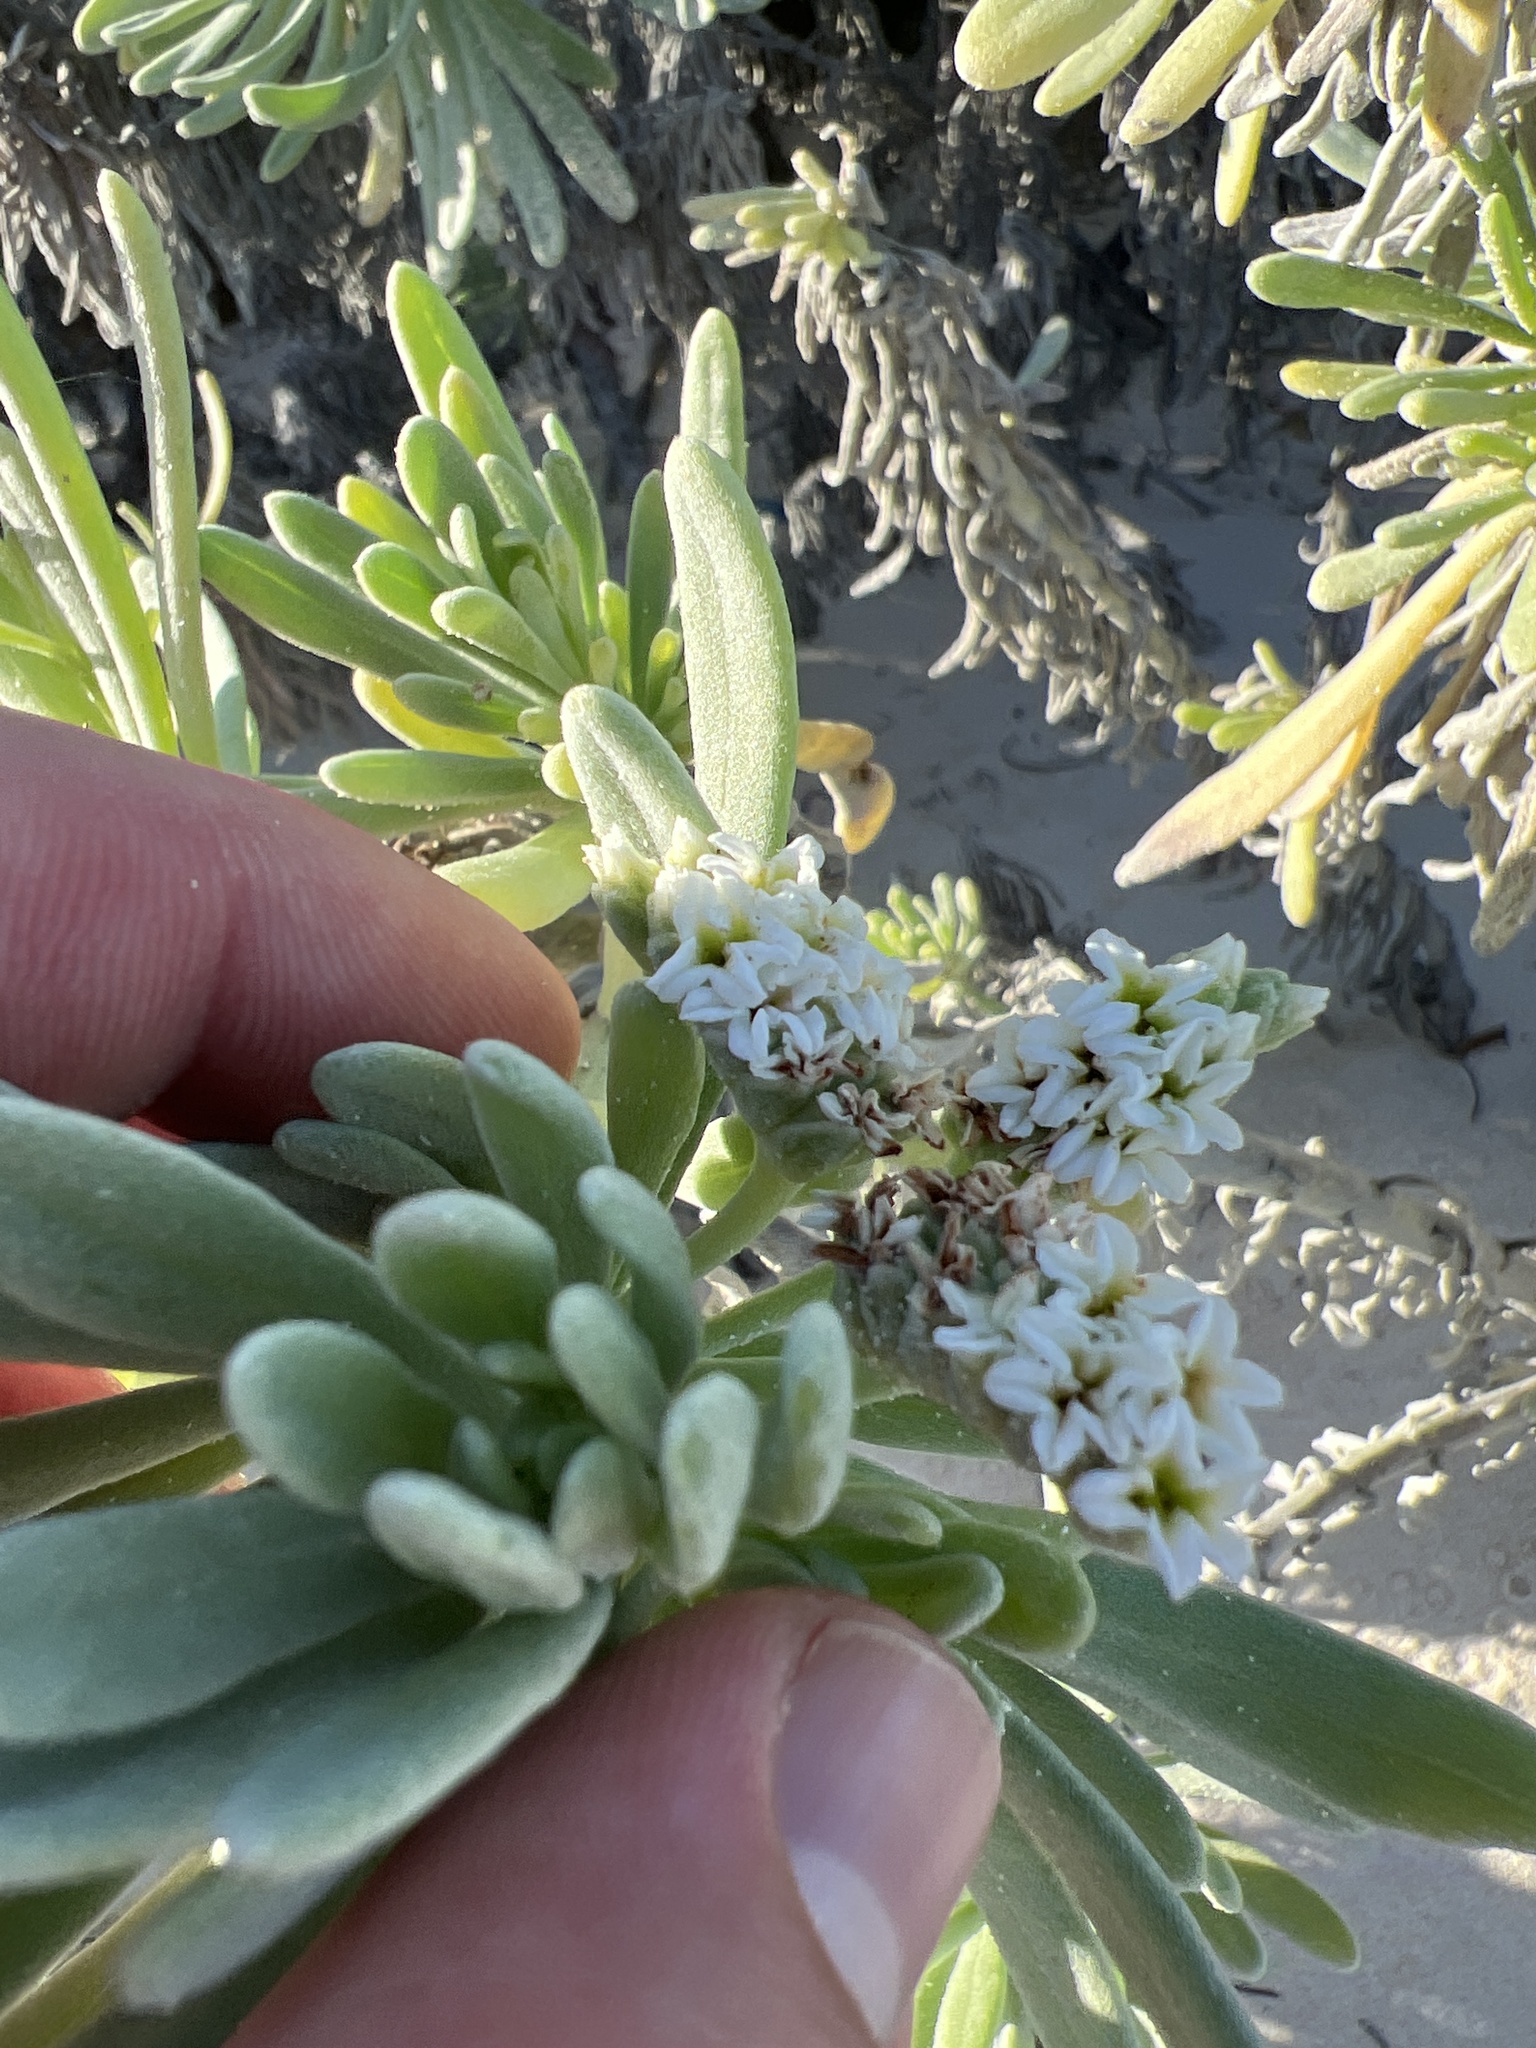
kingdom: Plantae
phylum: Tracheophyta
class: Magnoliopsida
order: Boraginales
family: Heliotropiaceae
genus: Tournefortia
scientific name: Tournefortia gnaphalodes
